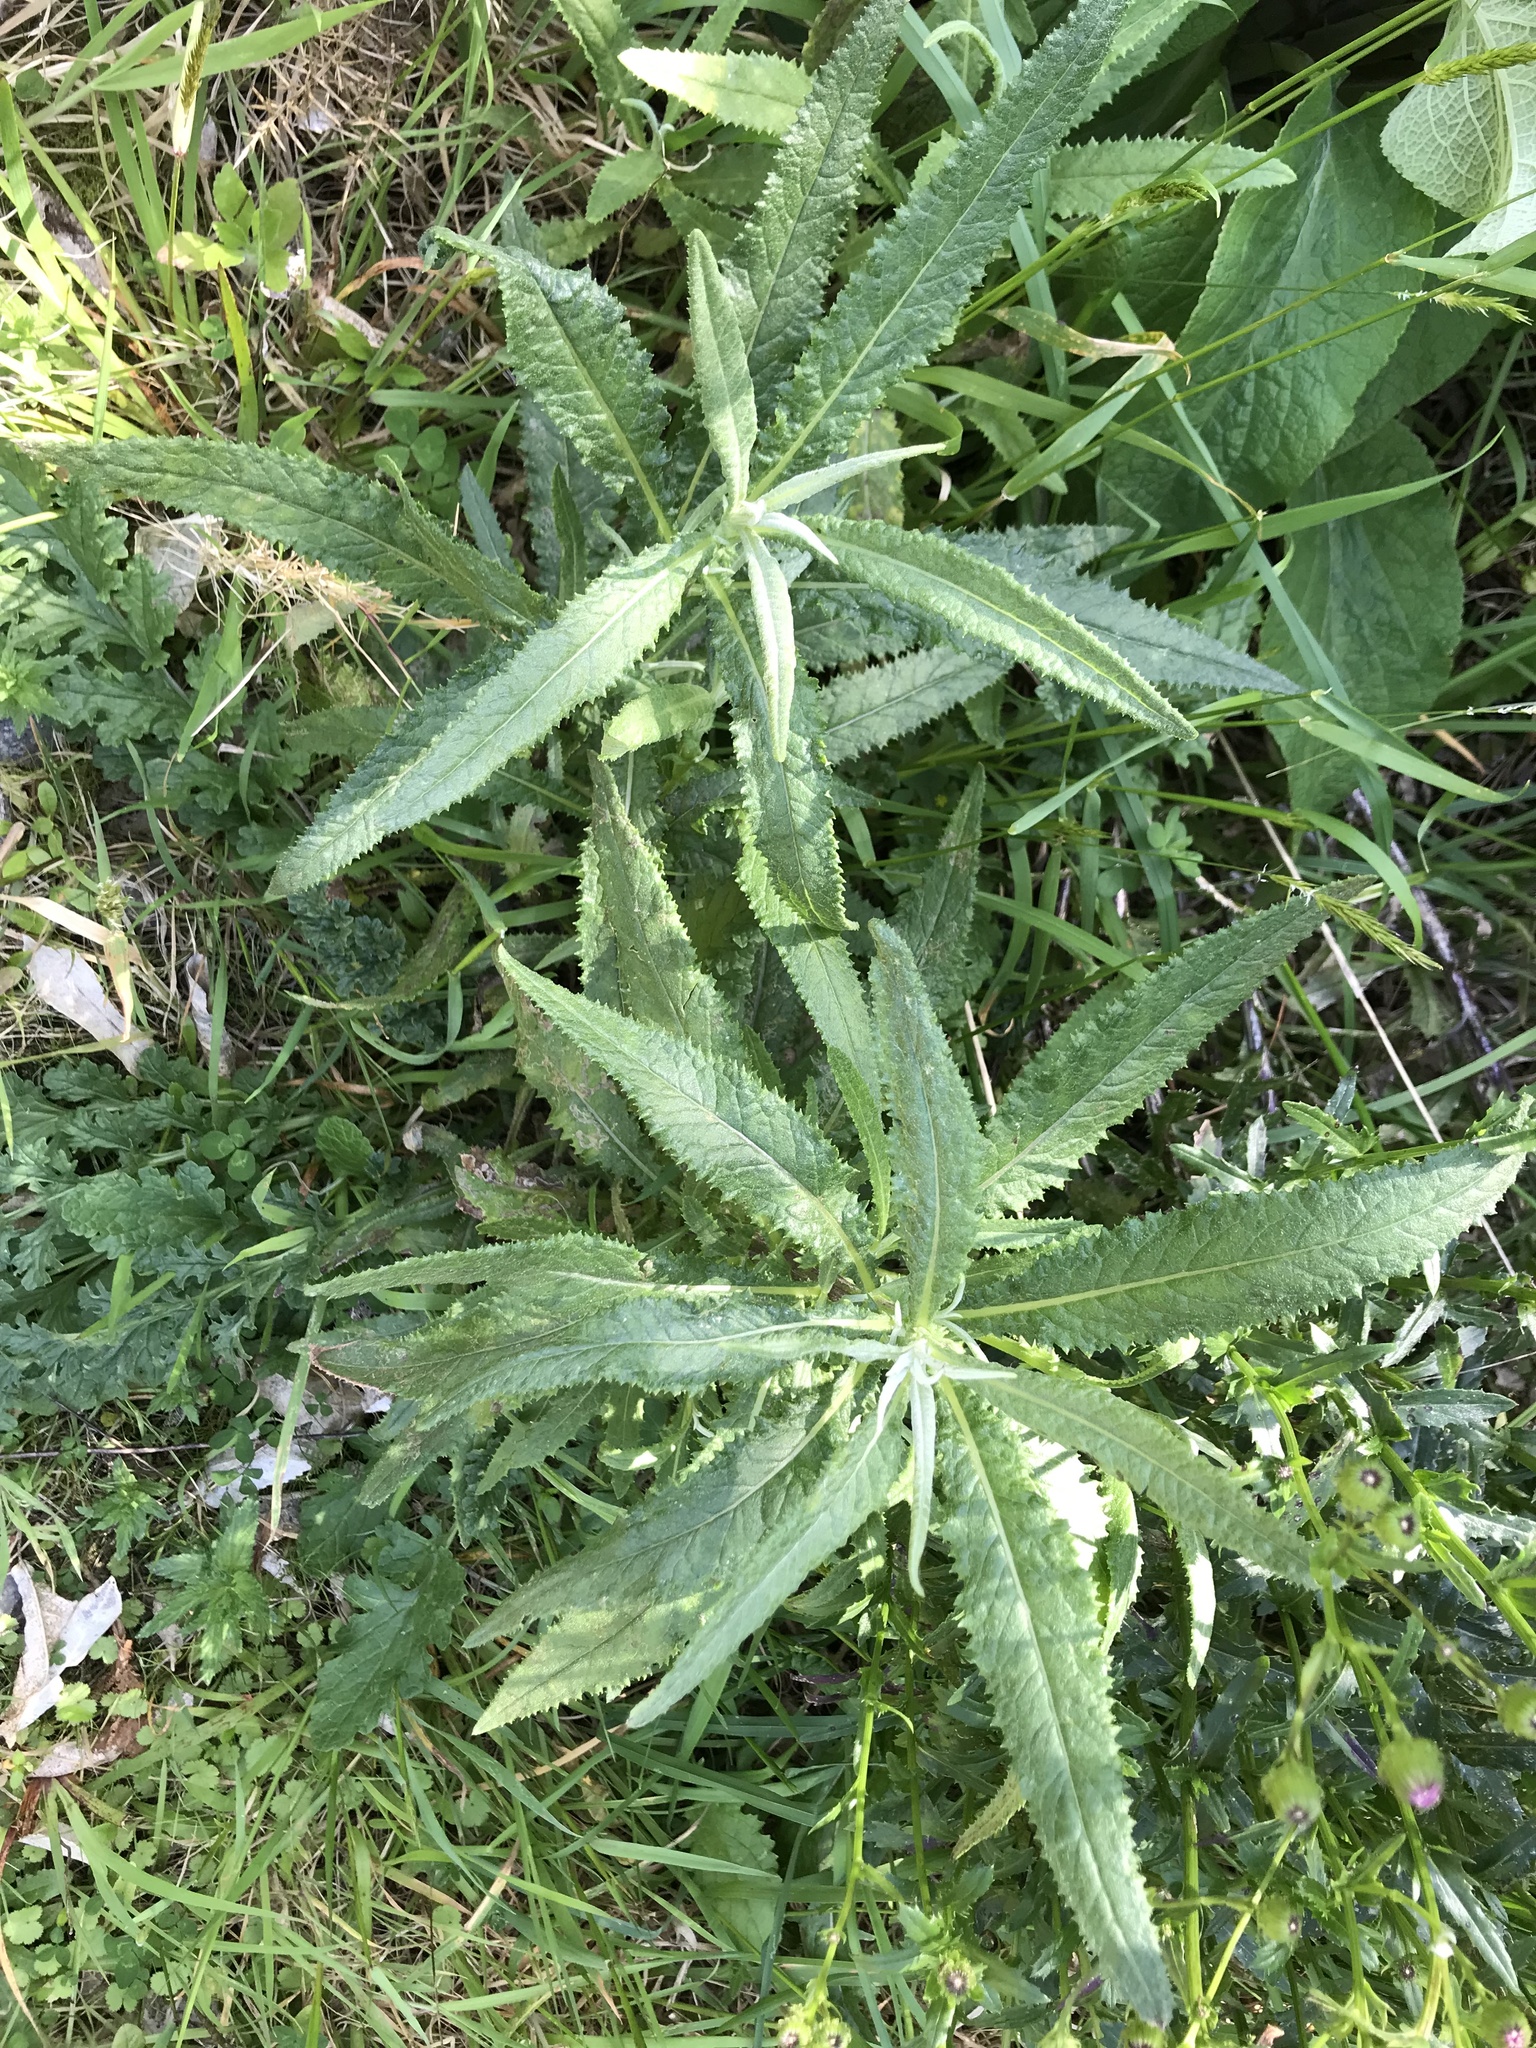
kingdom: Plantae
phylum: Tracheophyta
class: Magnoliopsida
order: Asterales
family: Asteraceae
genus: Senecio
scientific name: Senecio minimus
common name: Toothed fireweed
